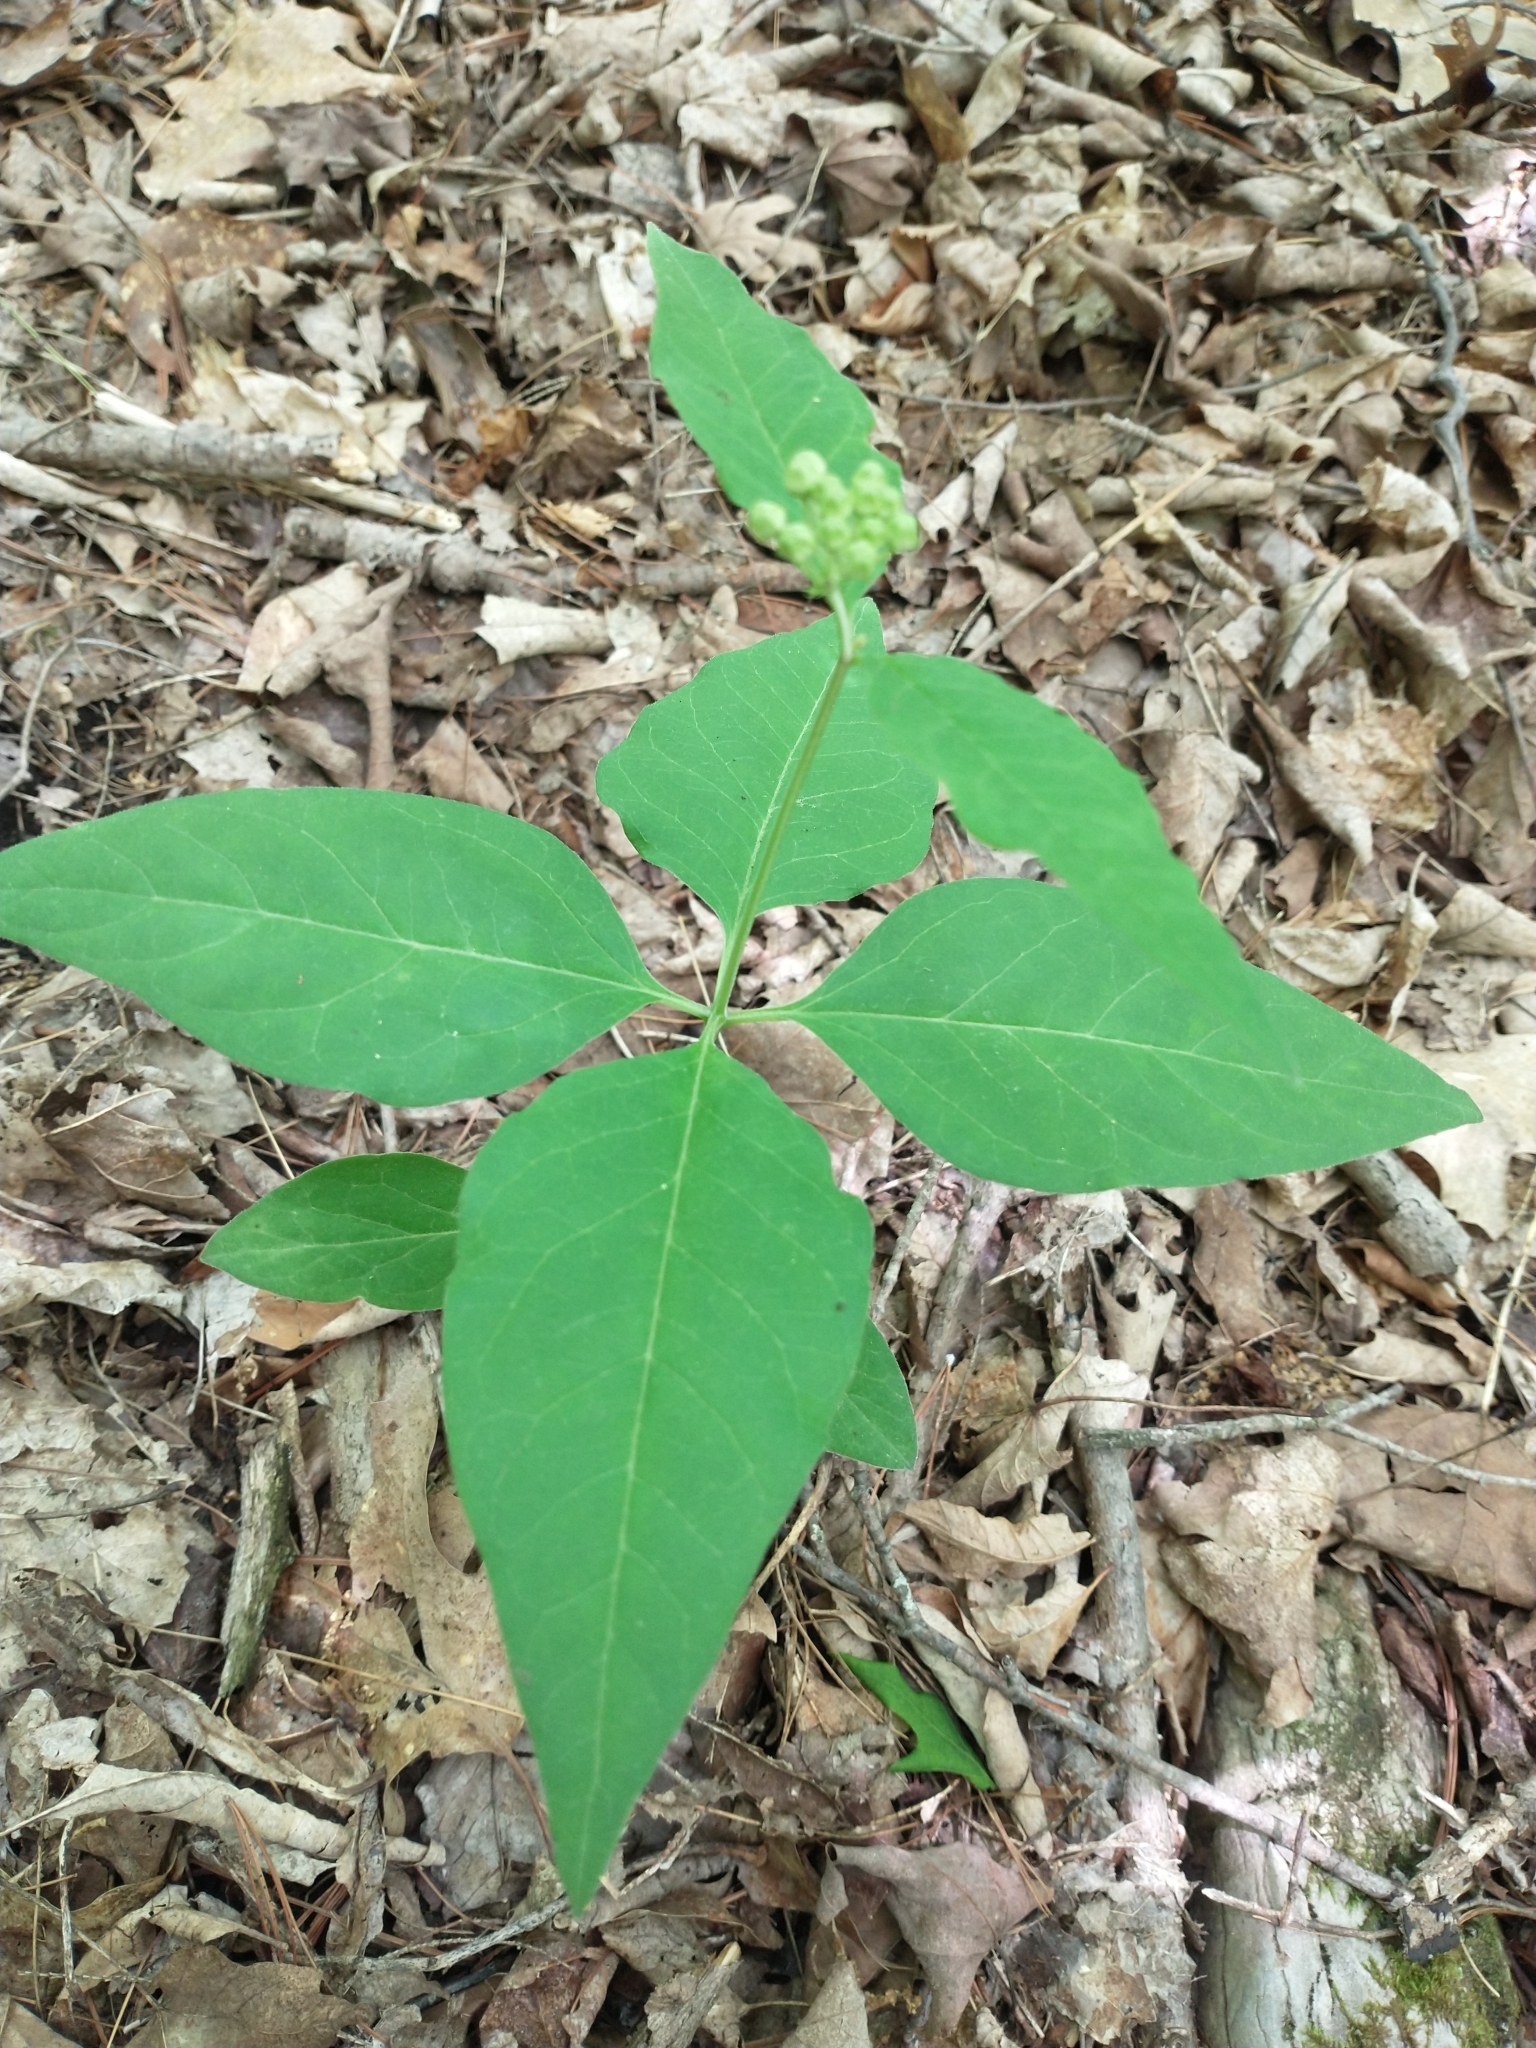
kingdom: Plantae
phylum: Tracheophyta
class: Magnoliopsida
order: Gentianales
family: Apocynaceae
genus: Asclepias
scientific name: Asclepias quadrifolia
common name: Whorled milkweed
